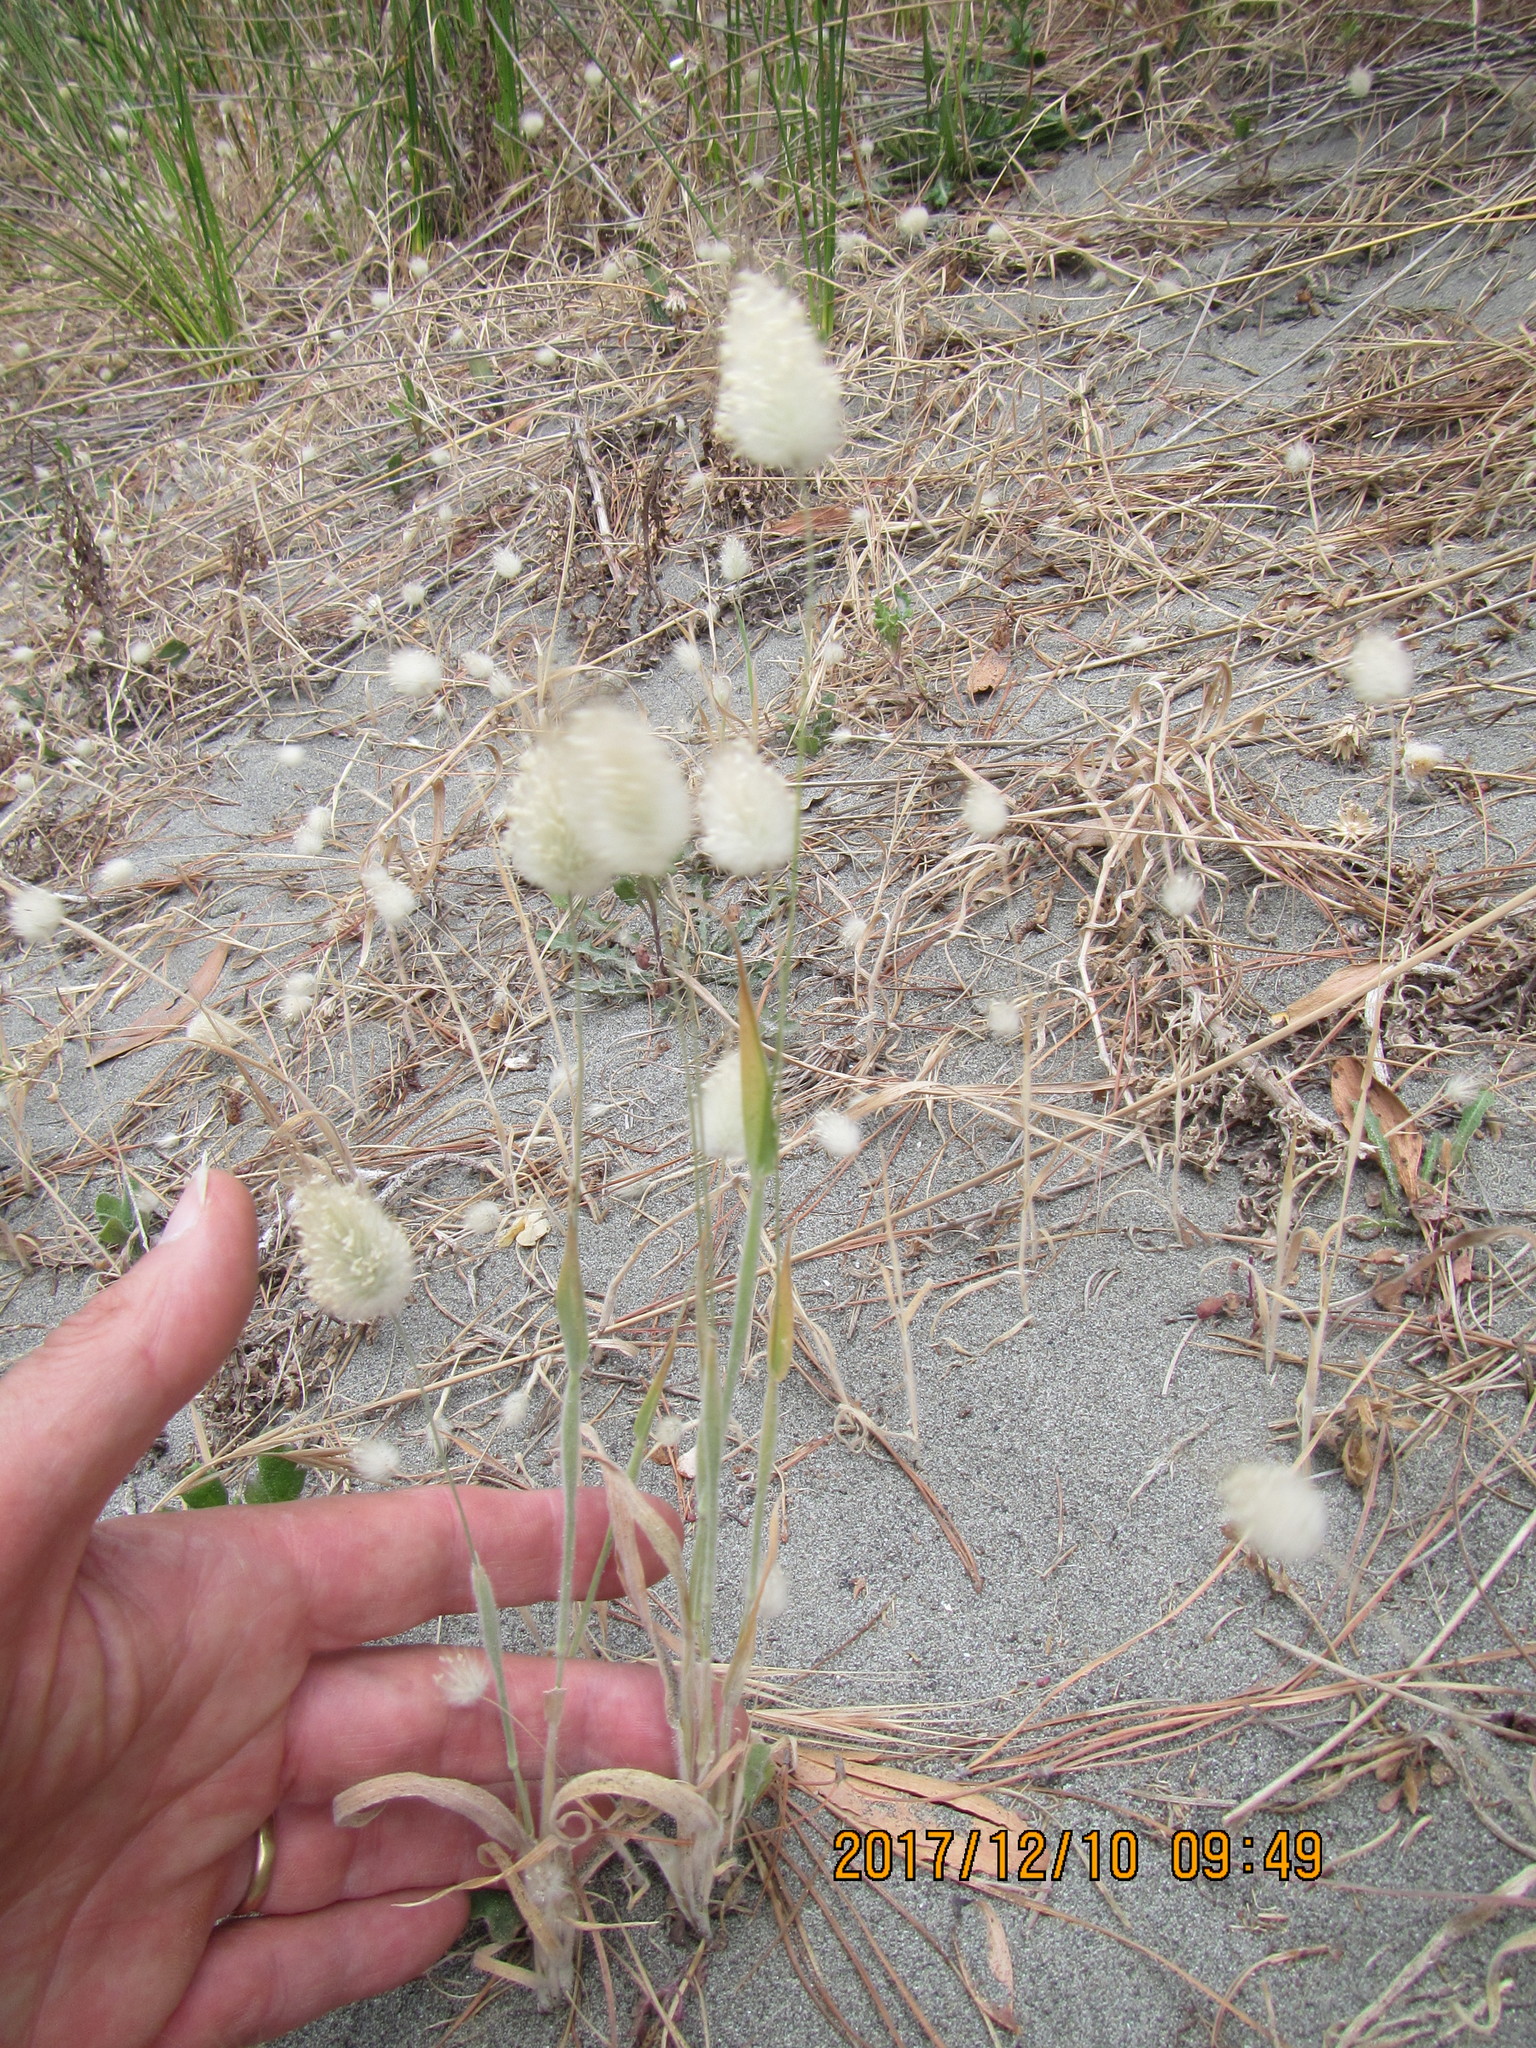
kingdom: Plantae
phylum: Tracheophyta
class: Liliopsida
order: Poales
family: Poaceae
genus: Lagurus
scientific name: Lagurus ovatus
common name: Hare's-tail
